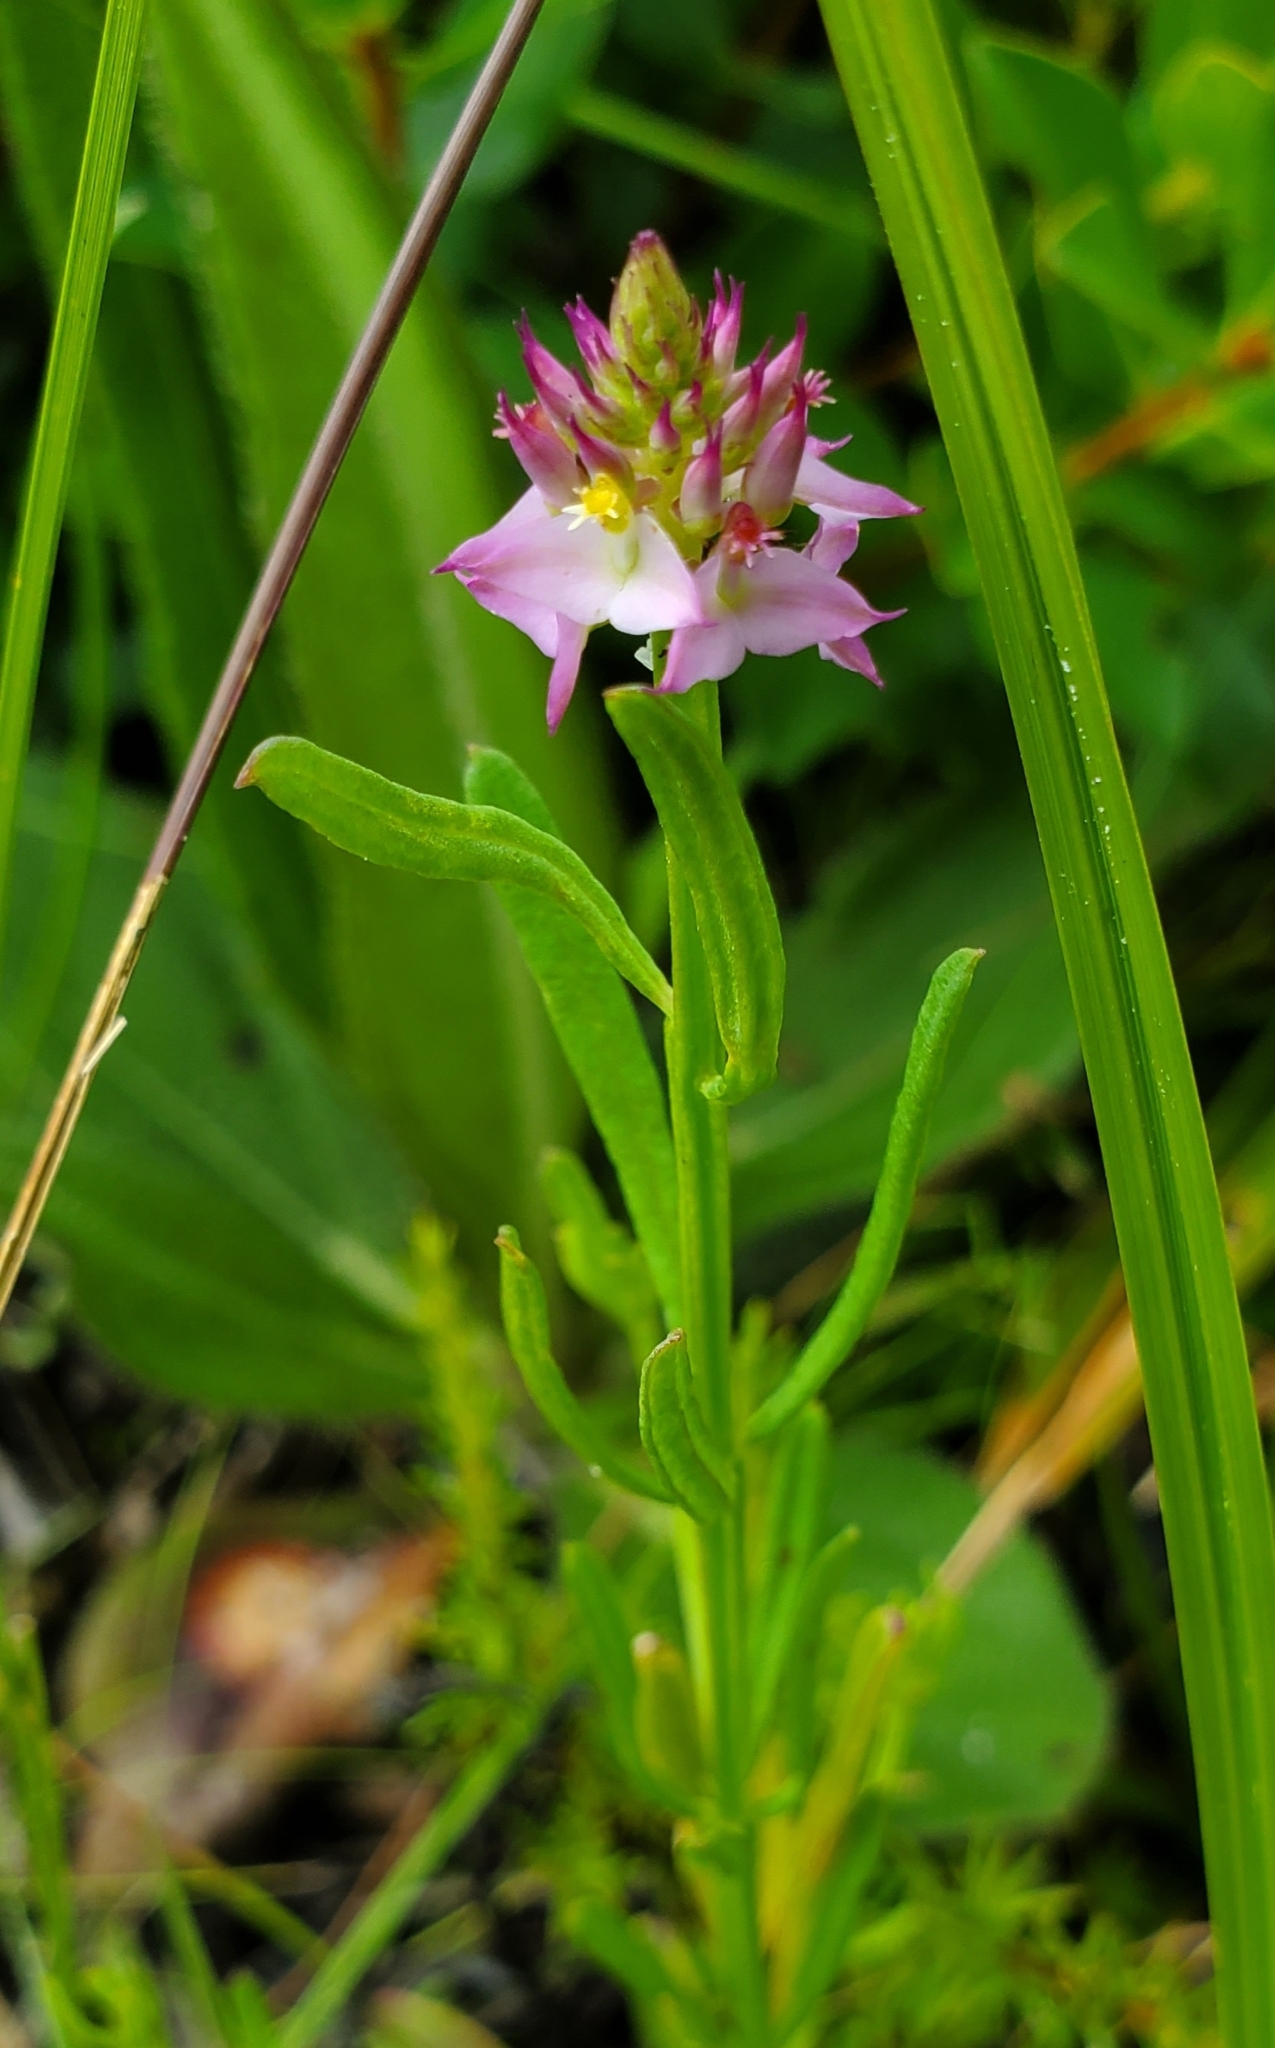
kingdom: Plantae
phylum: Tracheophyta
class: Magnoliopsida
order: Fabales
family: Polygalaceae
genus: Polygala
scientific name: Polygala cruciata
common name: Drumheads
